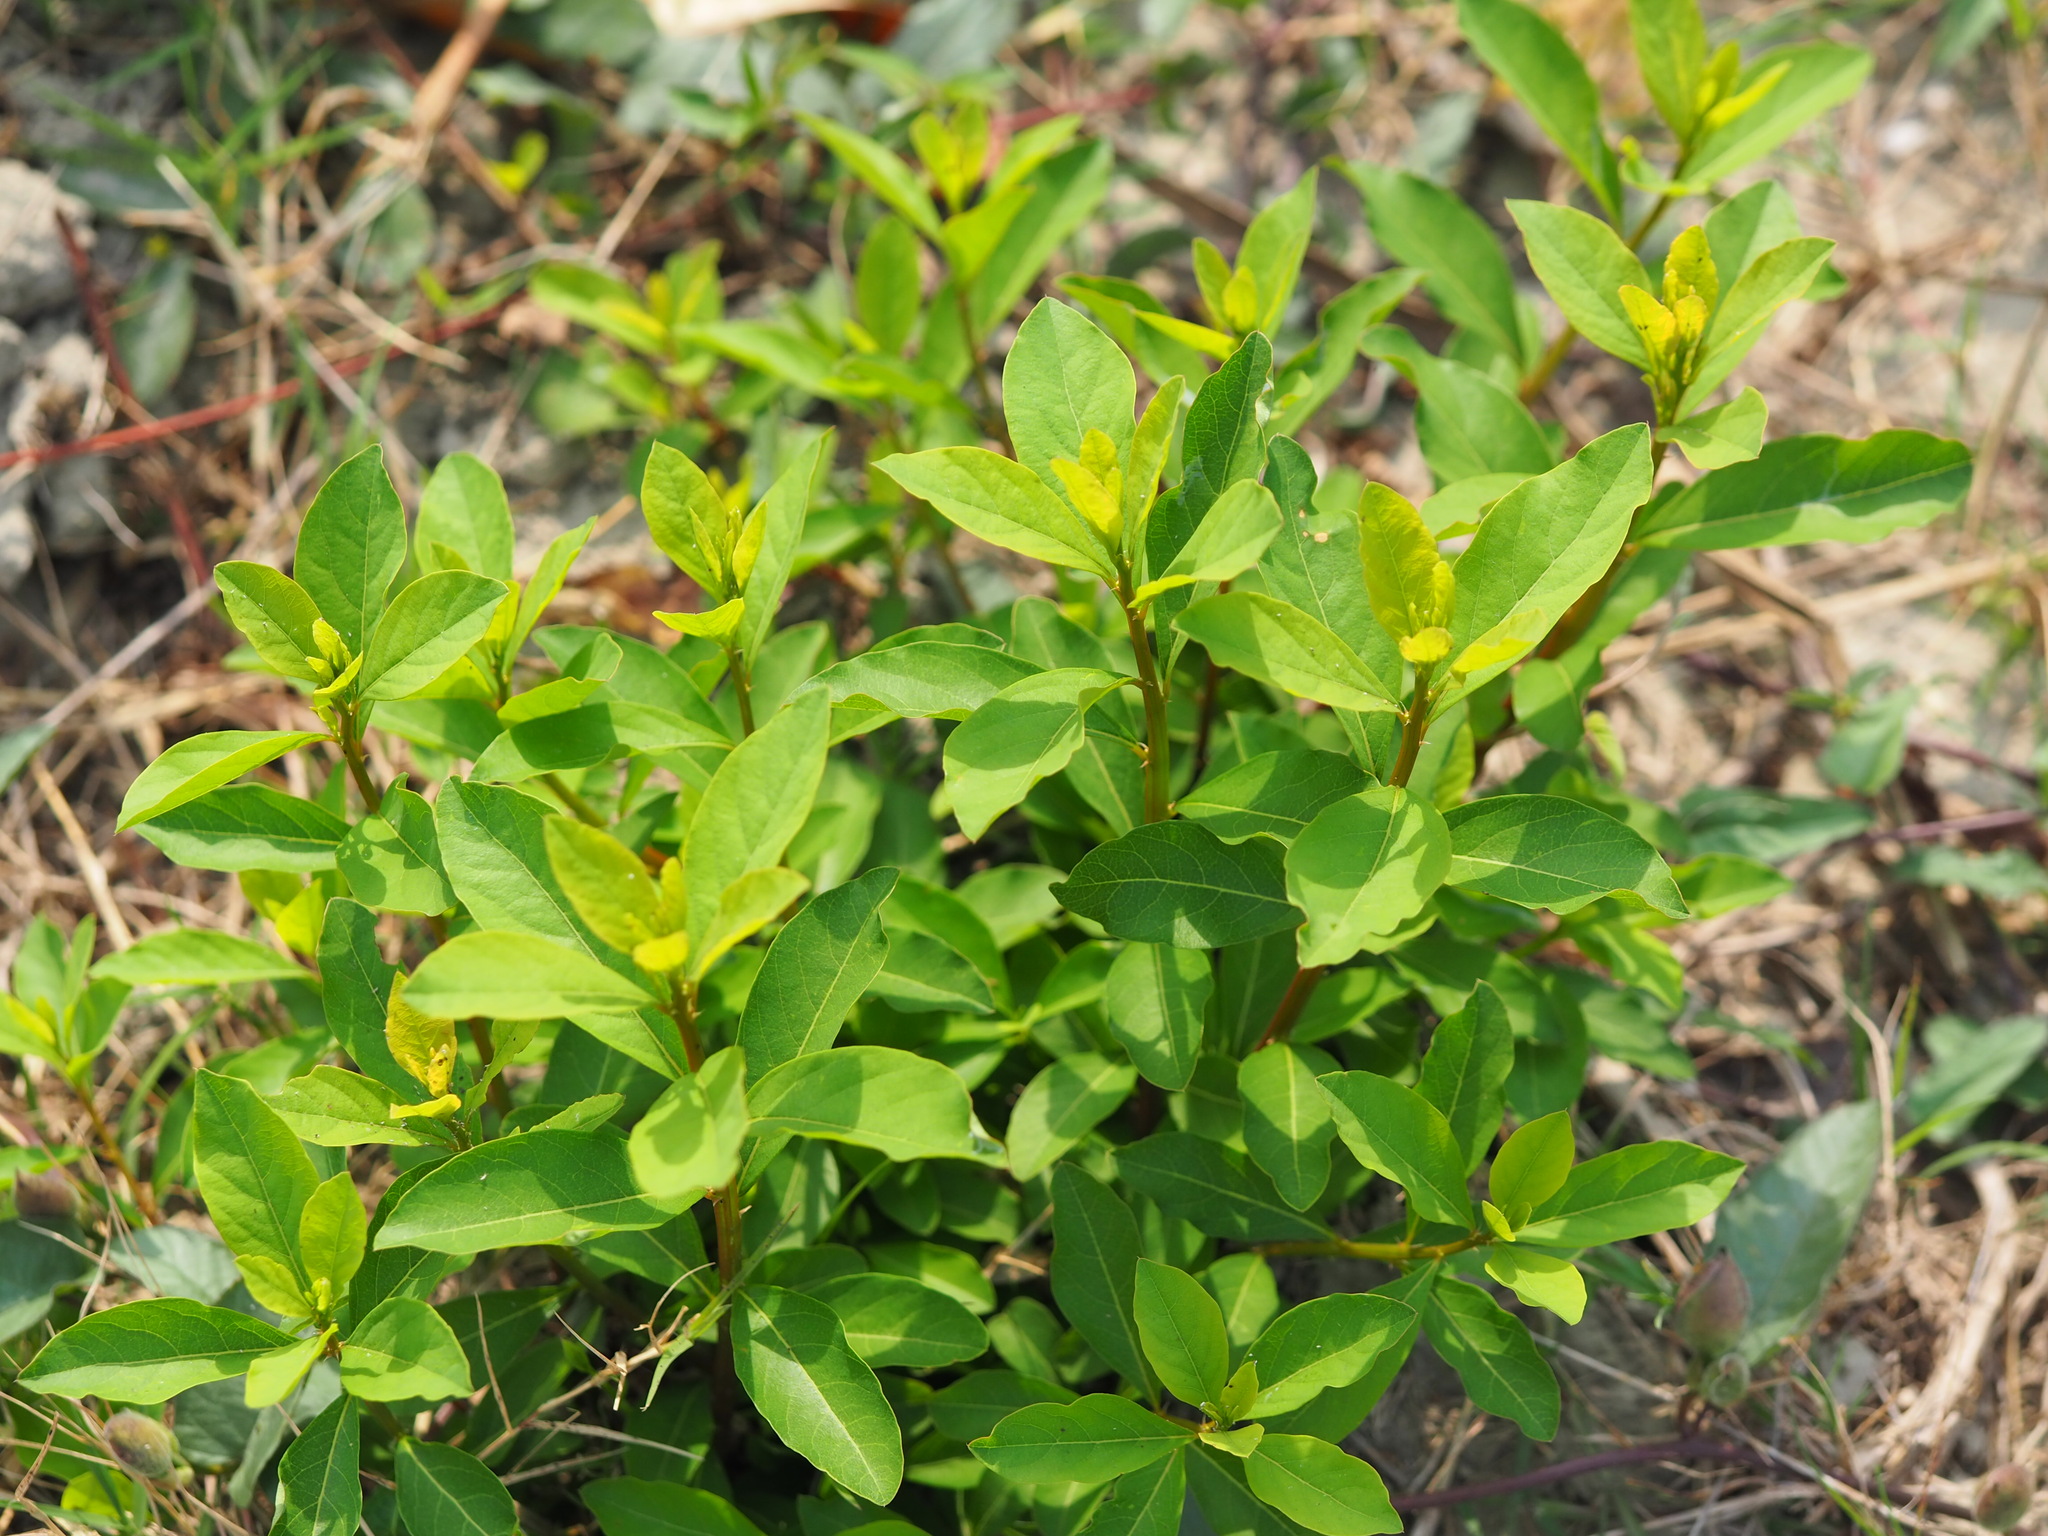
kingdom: Plantae
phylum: Tracheophyta
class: Magnoliopsida
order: Malpighiales
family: Phyllanthaceae
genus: Flueggea
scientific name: Flueggea virosa
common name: Common bushweed
